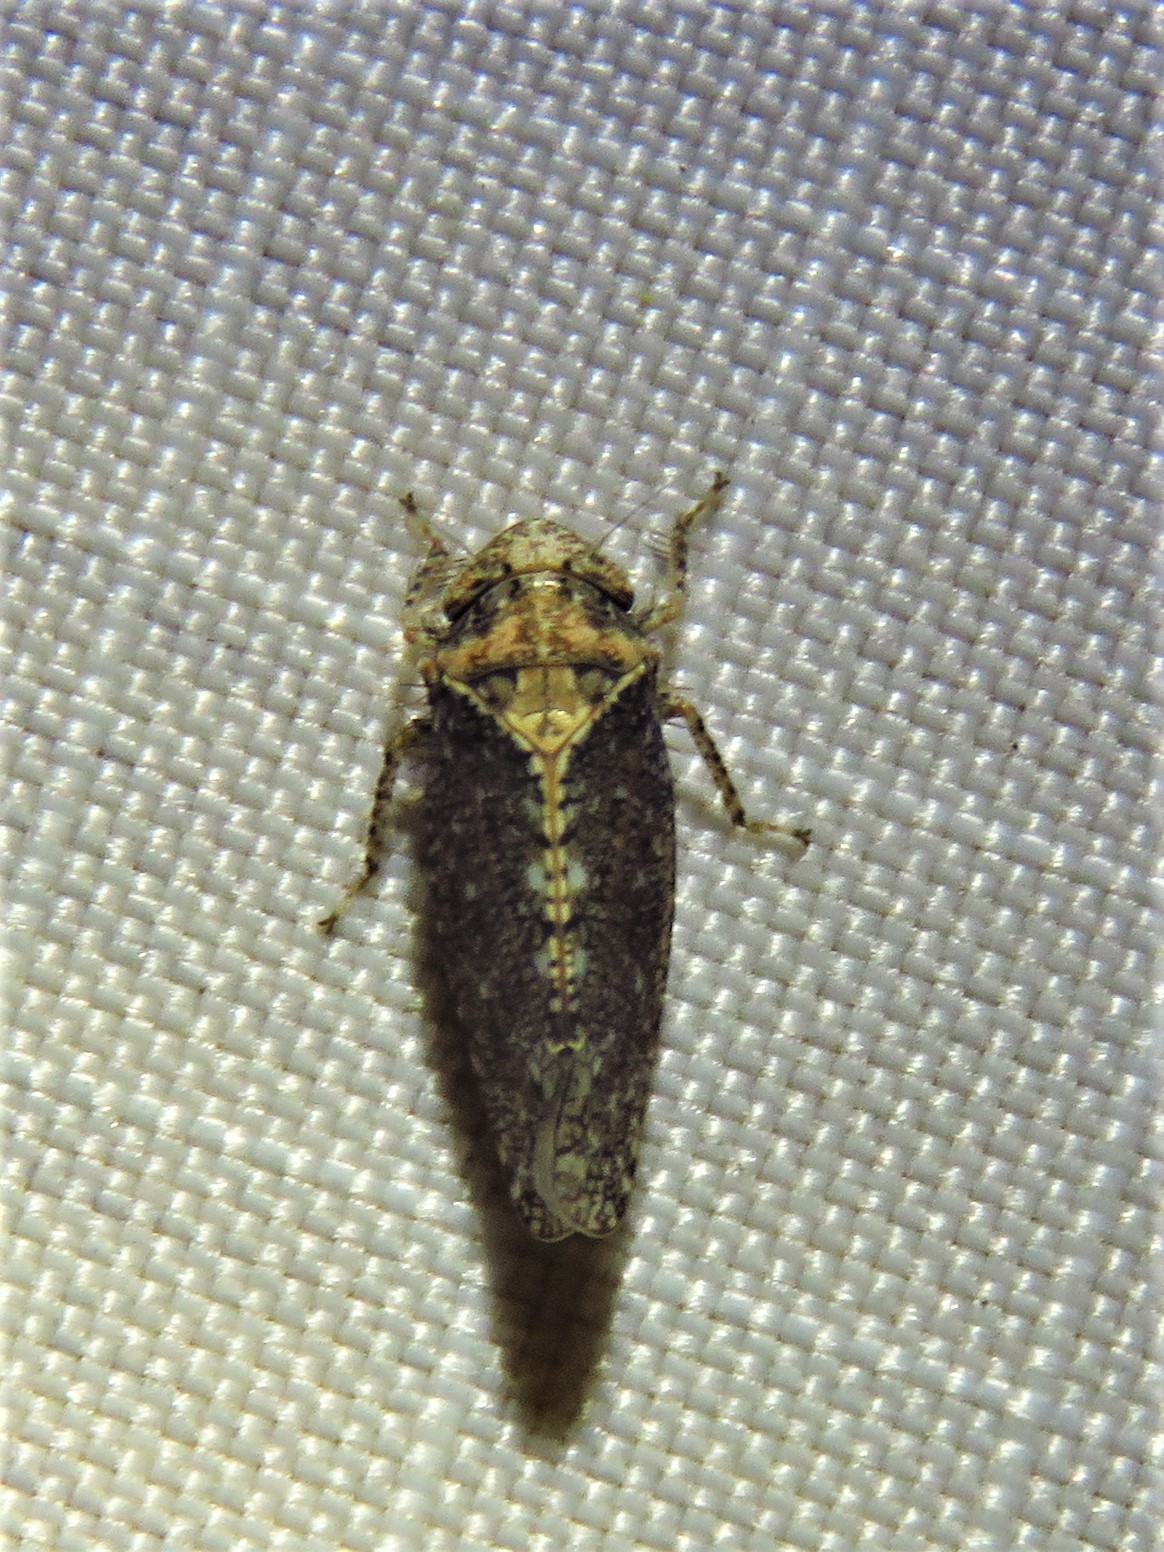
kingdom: Animalia
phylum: Arthropoda
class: Insecta
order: Hemiptera
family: Cicadellidae
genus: Excultanus
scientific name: Excultanus excultus
